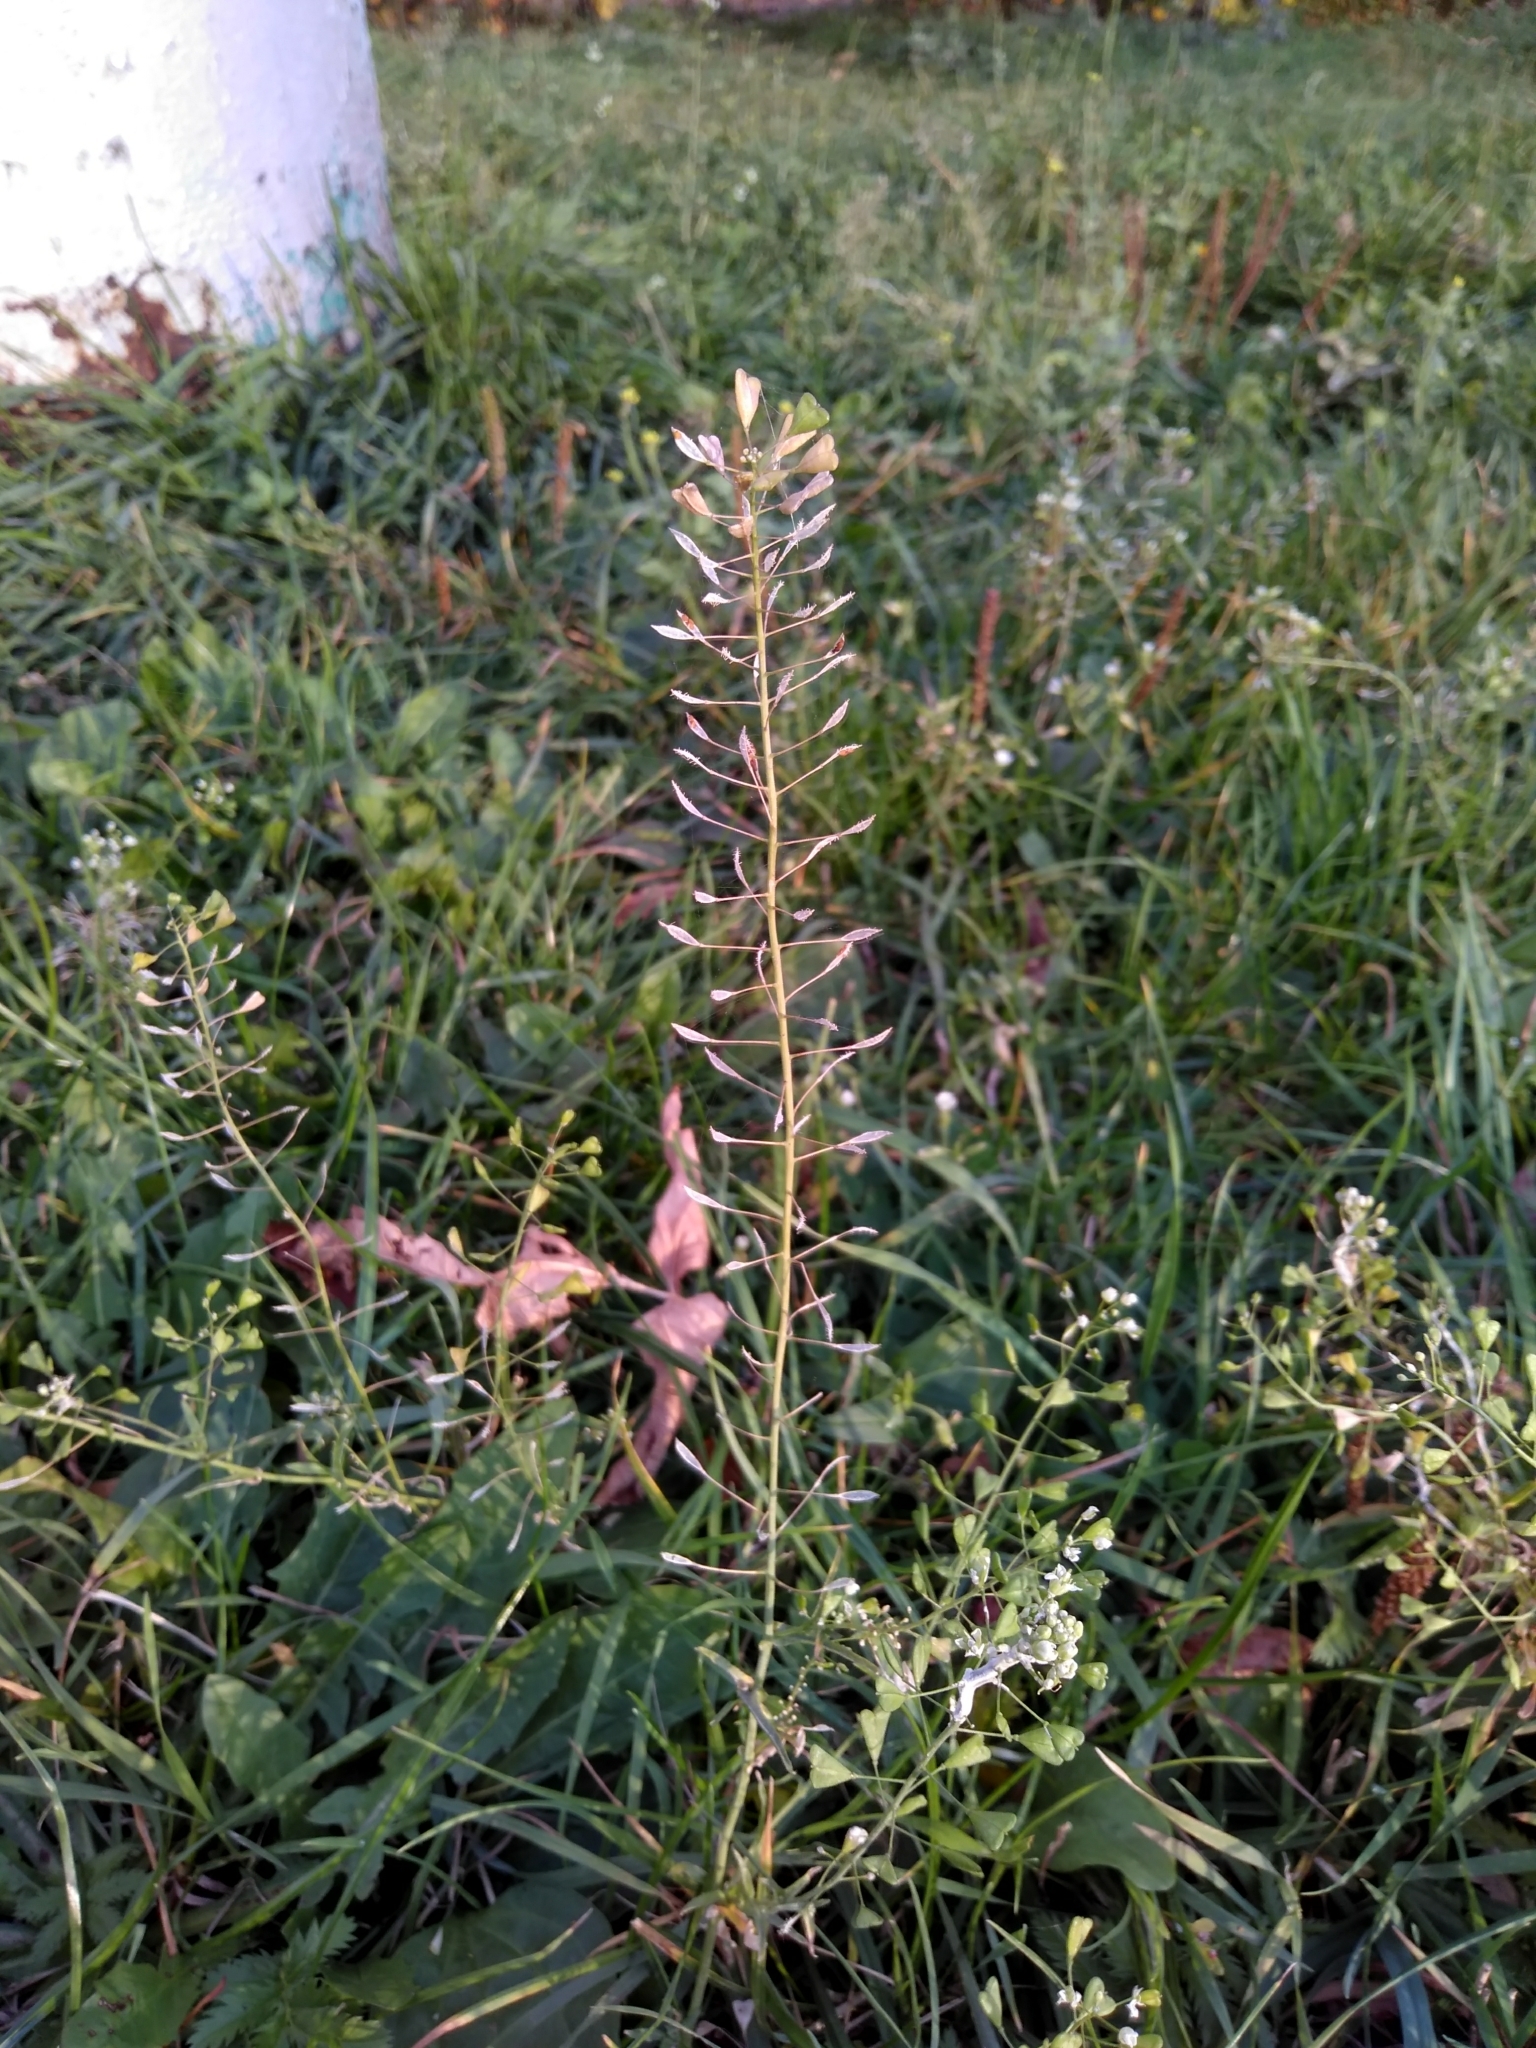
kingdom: Plantae
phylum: Tracheophyta
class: Magnoliopsida
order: Brassicales
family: Brassicaceae
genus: Capsella
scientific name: Capsella bursa-pastoris
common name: Shepherd's purse
